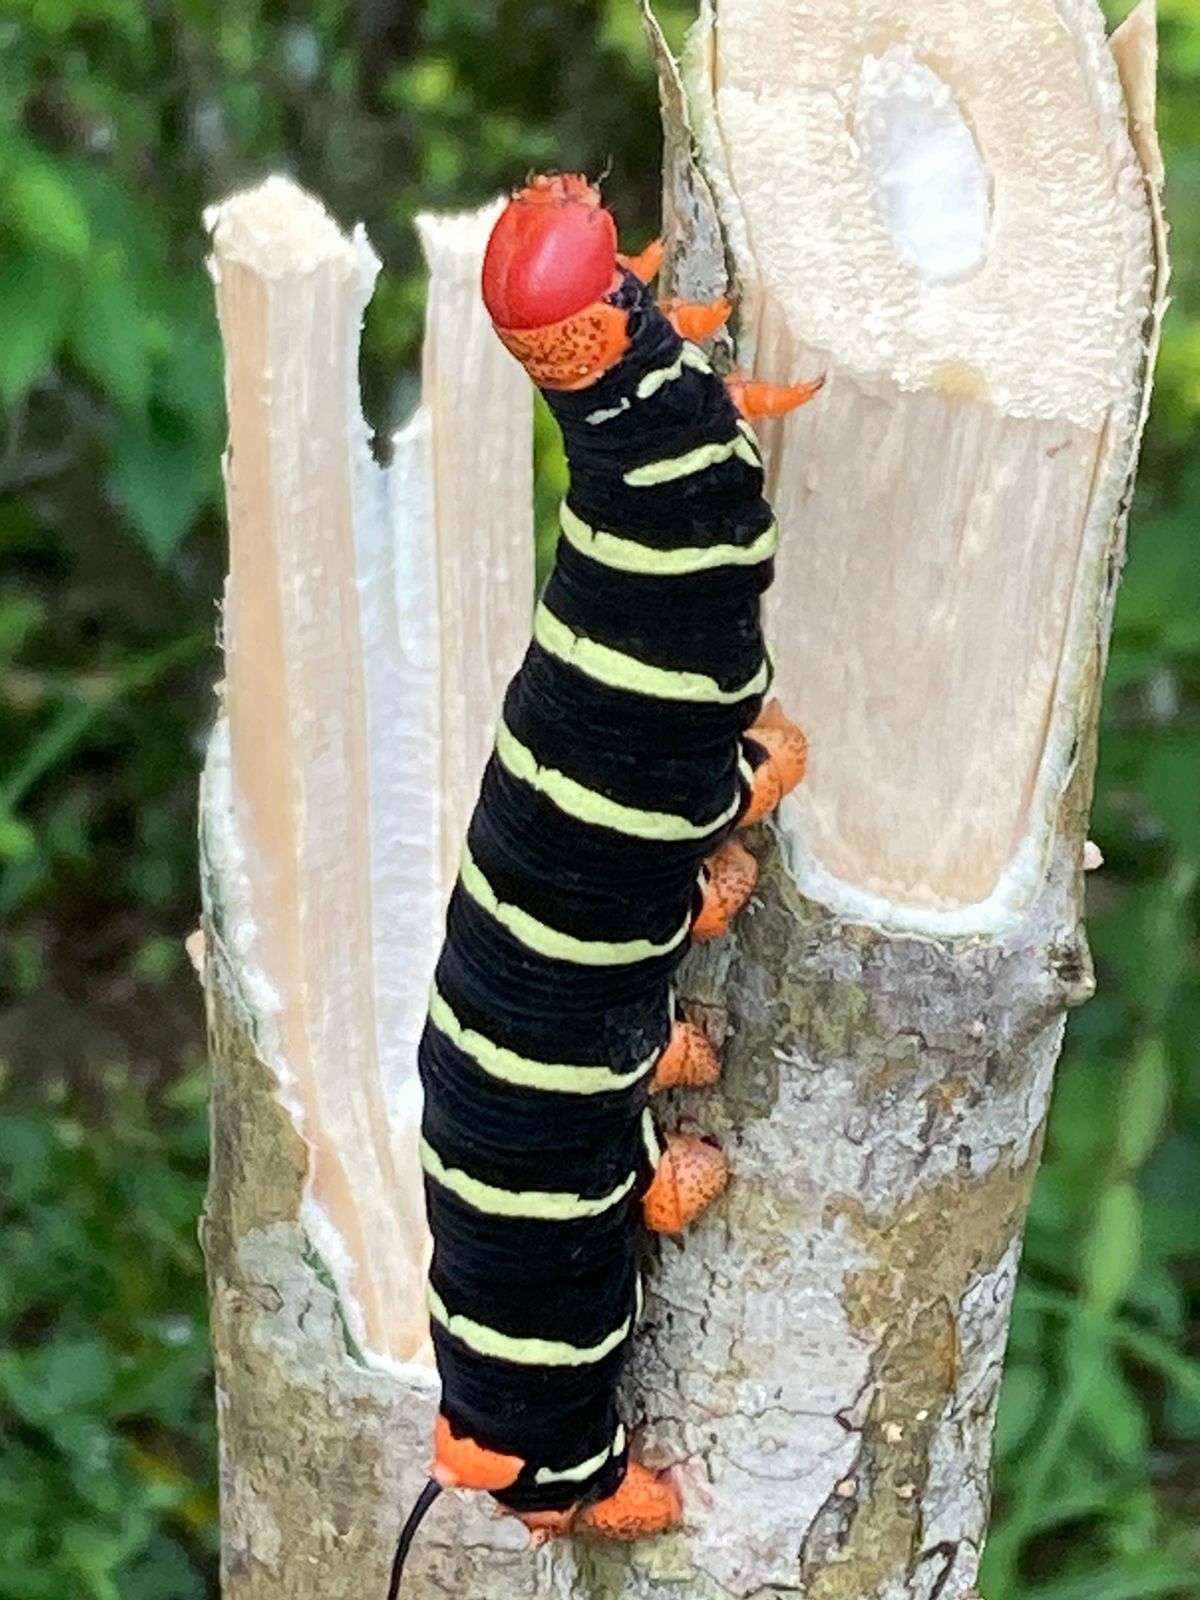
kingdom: Animalia
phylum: Arthropoda
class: Insecta
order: Lepidoptera
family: Sphingidae
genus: Pseudosphinx
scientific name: Pseudosphinx tetrio
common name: Tetrio sphinx
